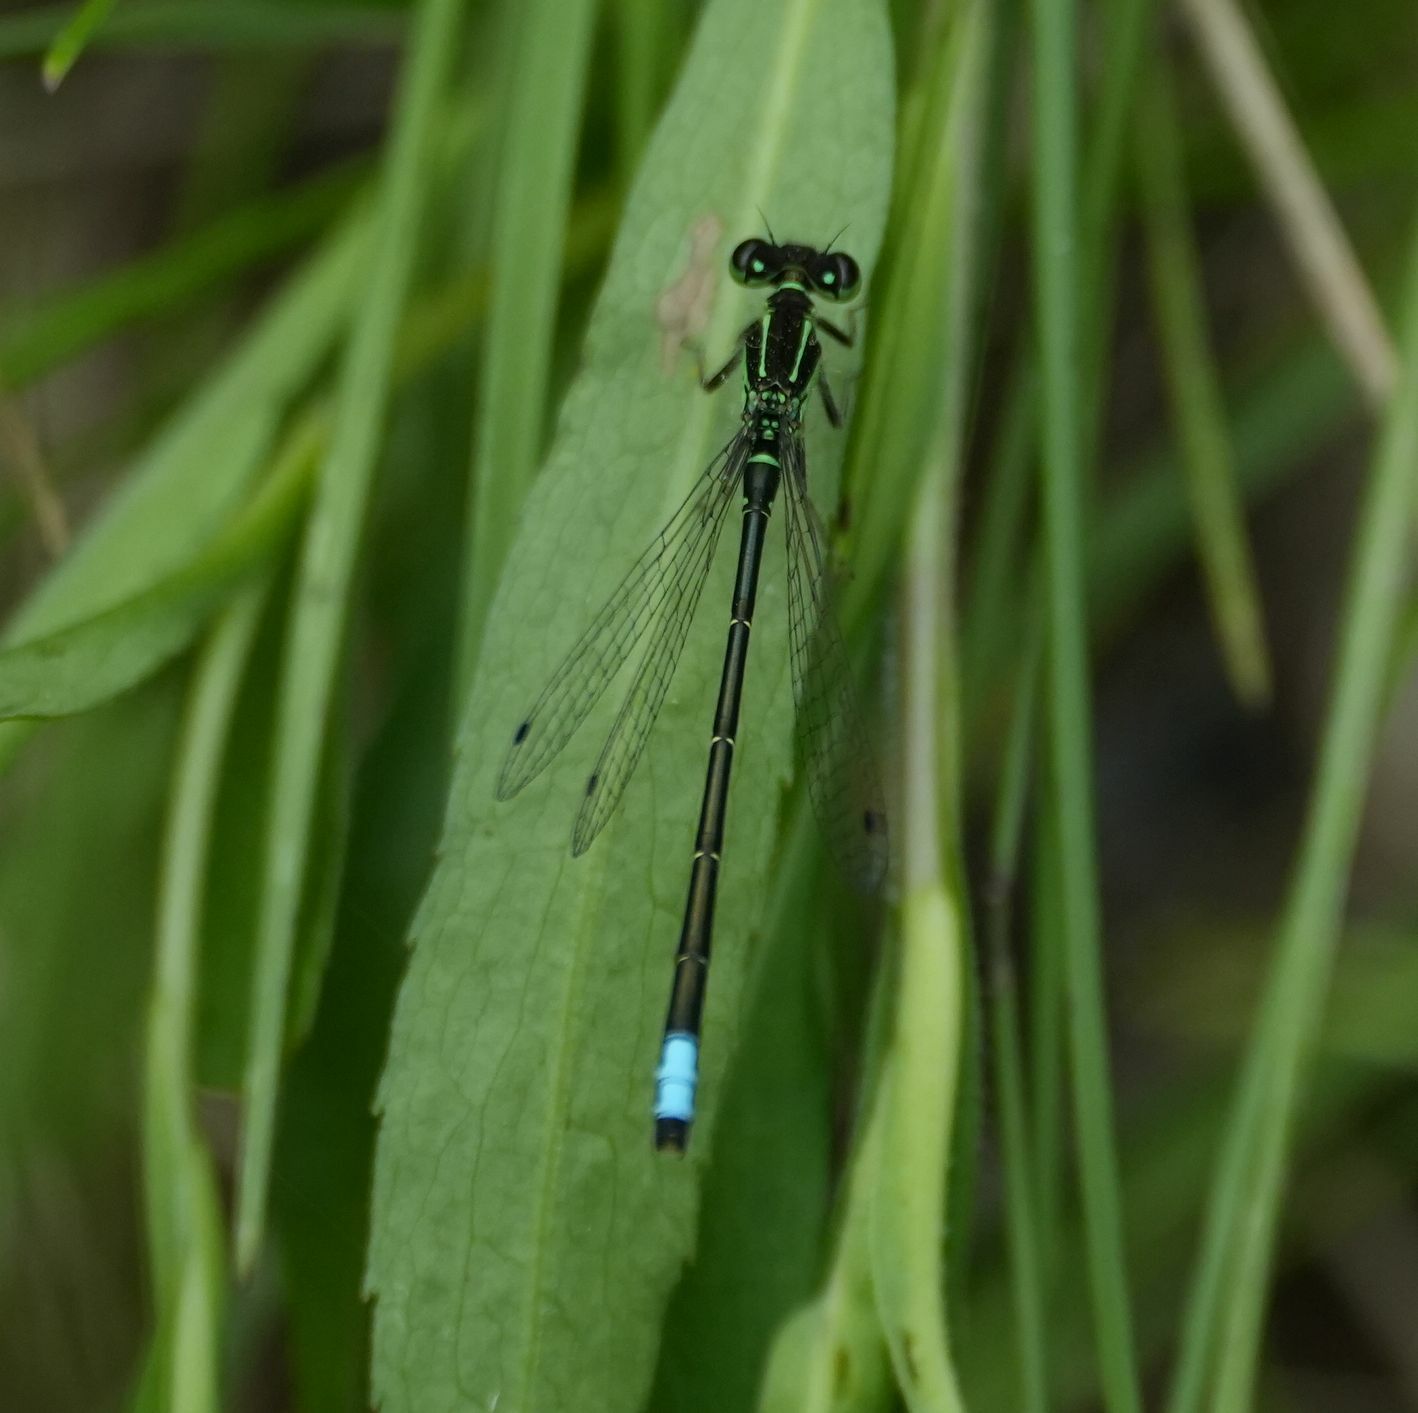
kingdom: Animalia
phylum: Arthropoda
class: Insecta
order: Odonata
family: Coenagrionidae
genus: Ischnura
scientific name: Ischnura verticalis
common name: Eastern forktail
